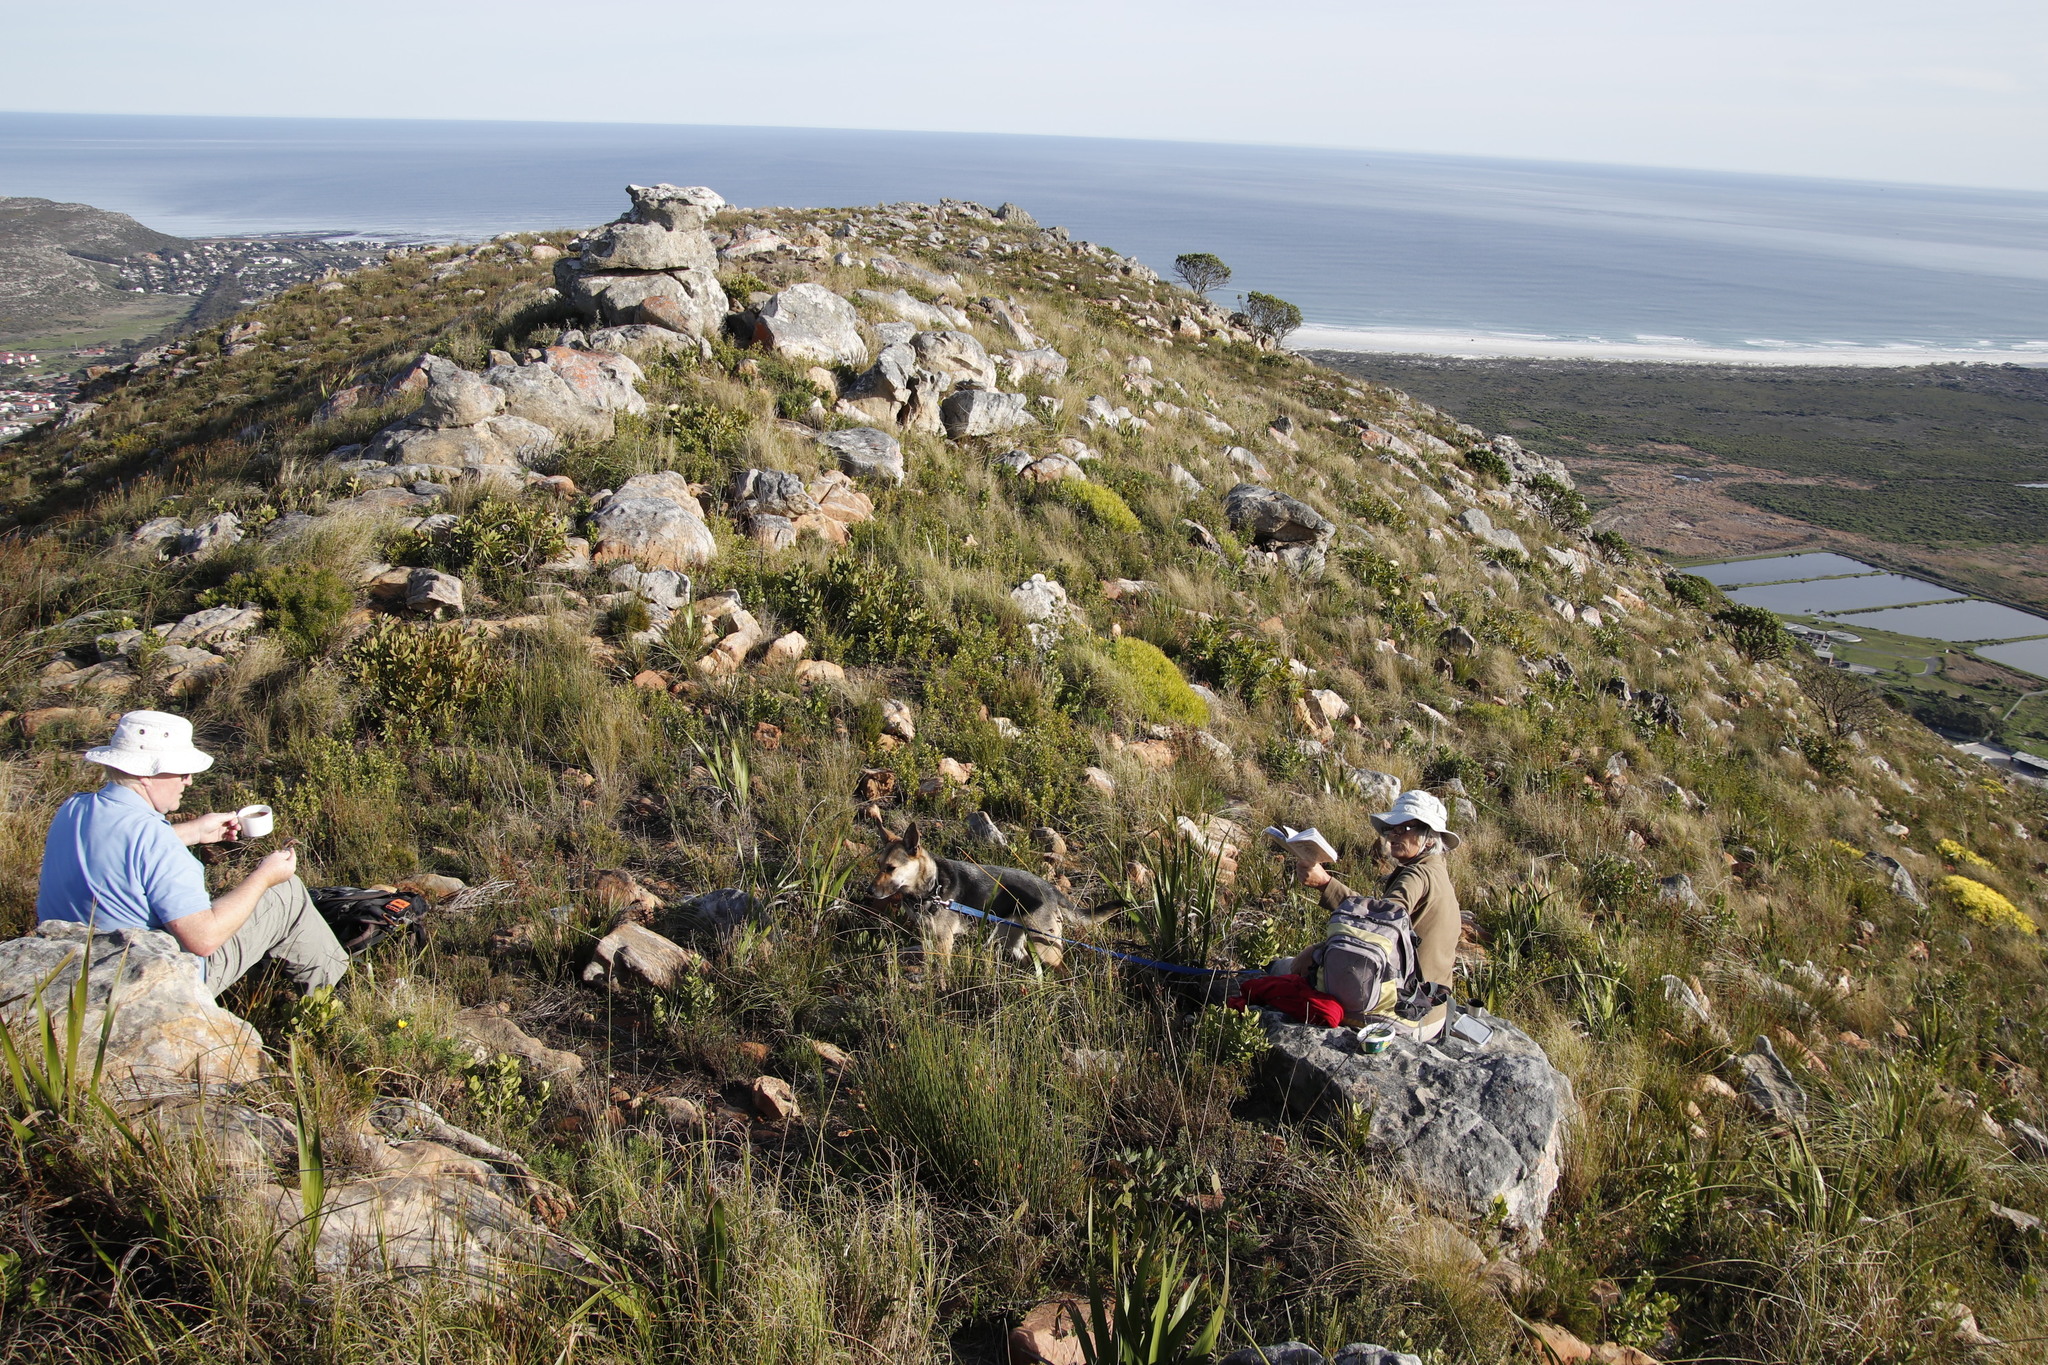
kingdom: Plantae
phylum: Tracheophyta
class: Magnoliopsida
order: Proteales
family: Proteaceae
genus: Leucadendron
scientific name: Leucadendron salignum
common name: Common sunshine conebush
